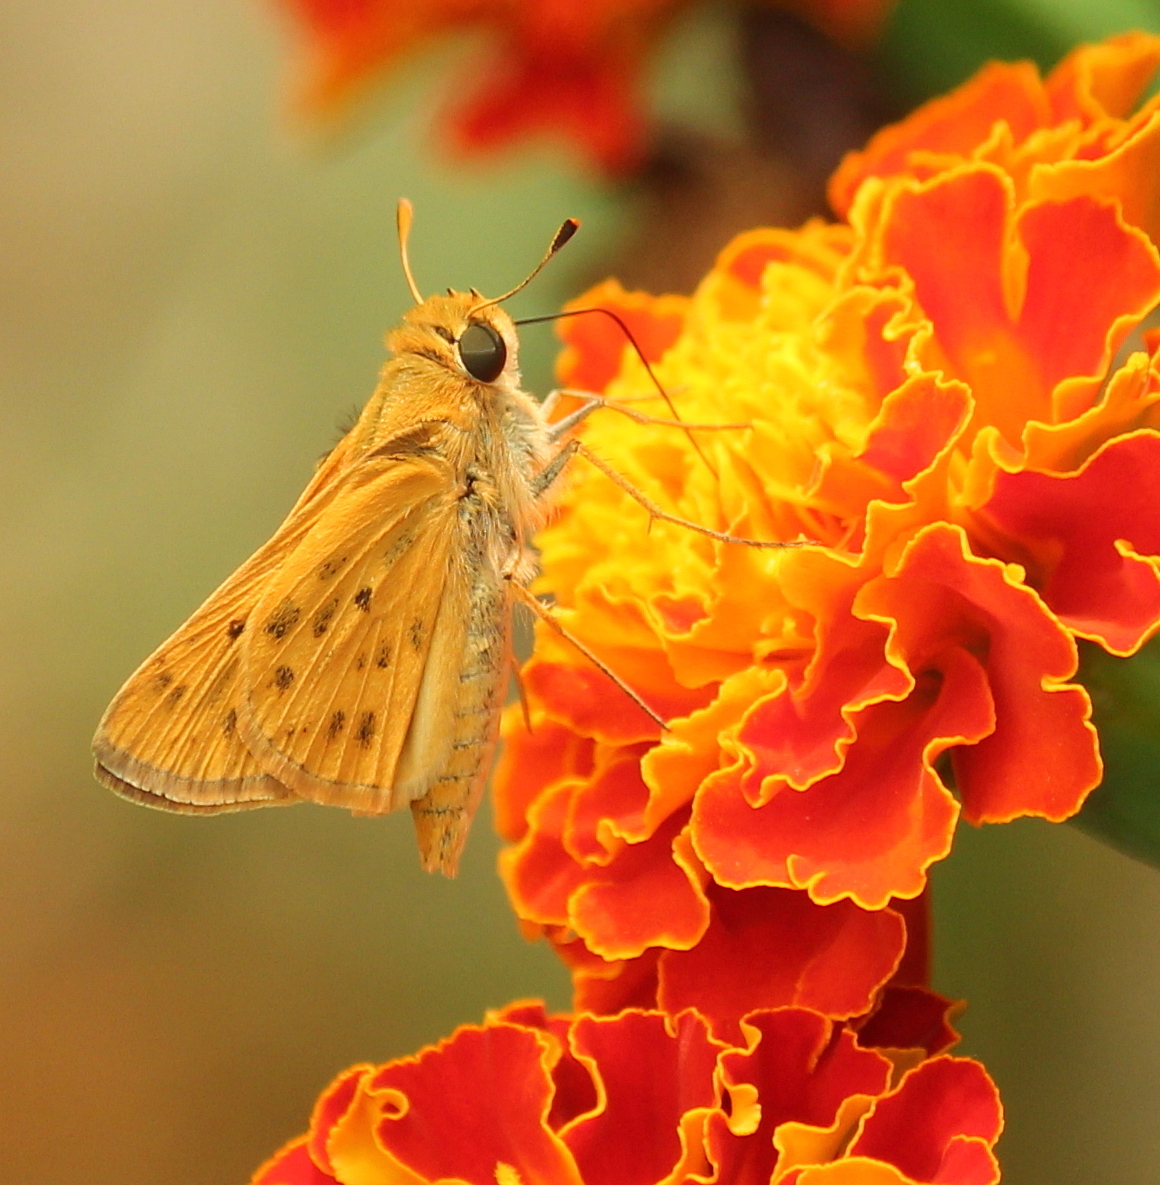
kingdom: Animalia
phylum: Arthropoda
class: Insecta
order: Lepidoptera
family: Hesperiidae
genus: Hylephila
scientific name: Hylephila phyleus
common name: Fiery skipper
